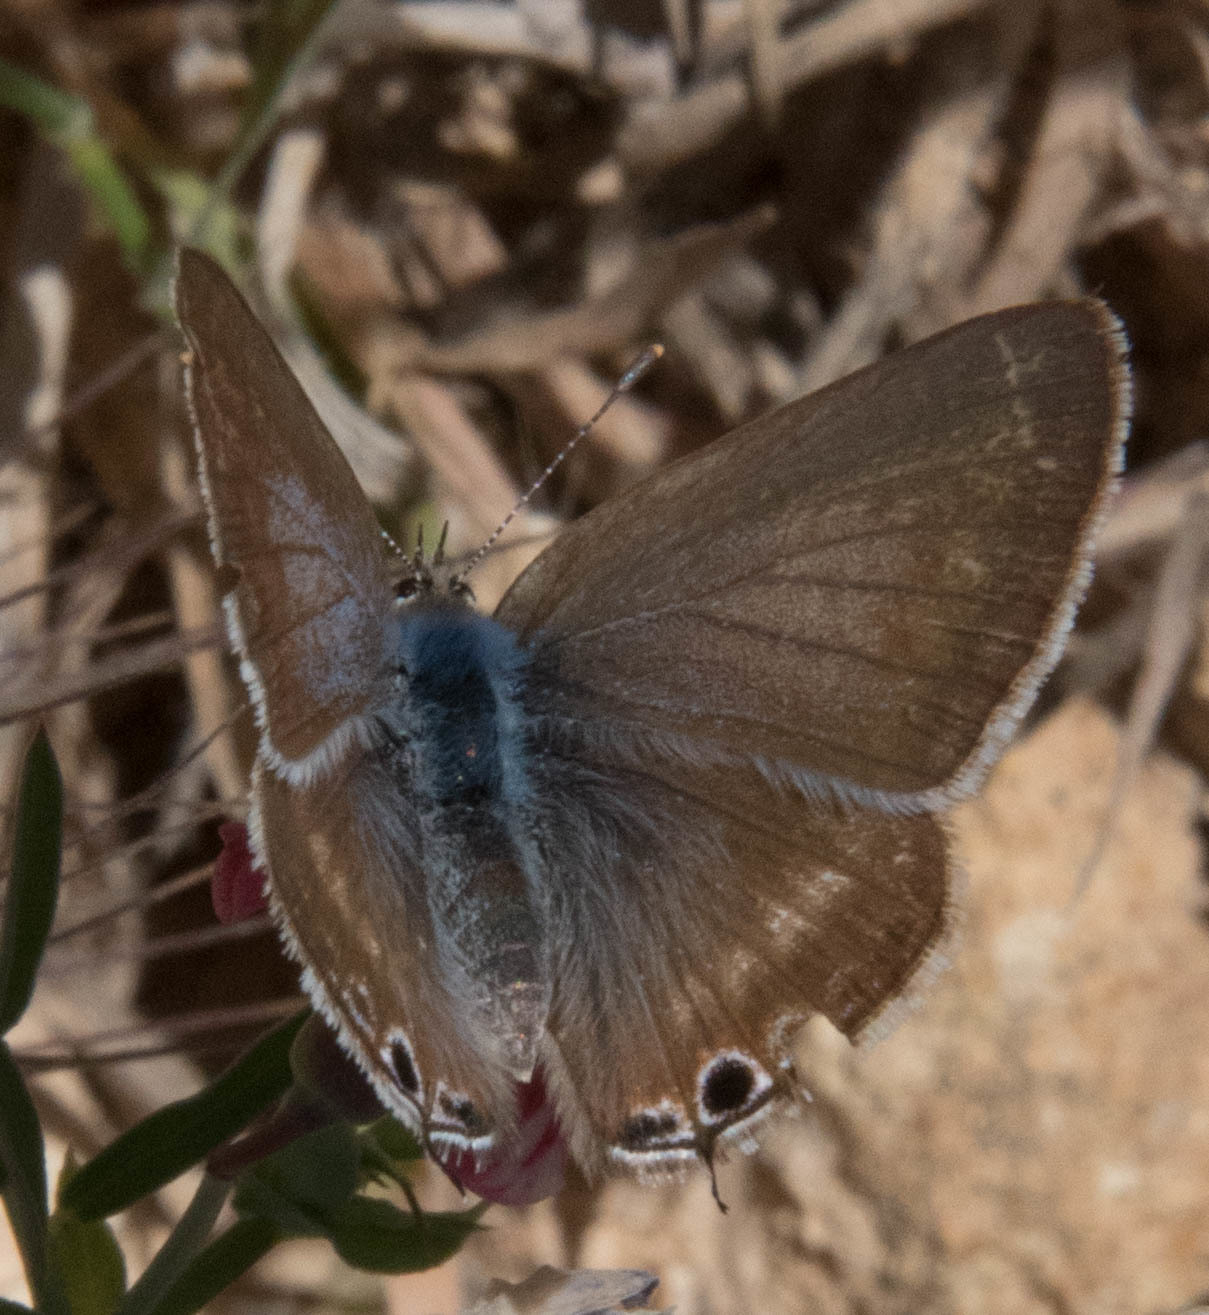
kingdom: Animalia
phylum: Arthropoda
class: Insecta
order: Lepidoptera
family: Lycaenidae
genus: Lampides
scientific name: Lampides boeticus
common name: Long-tailed blue
